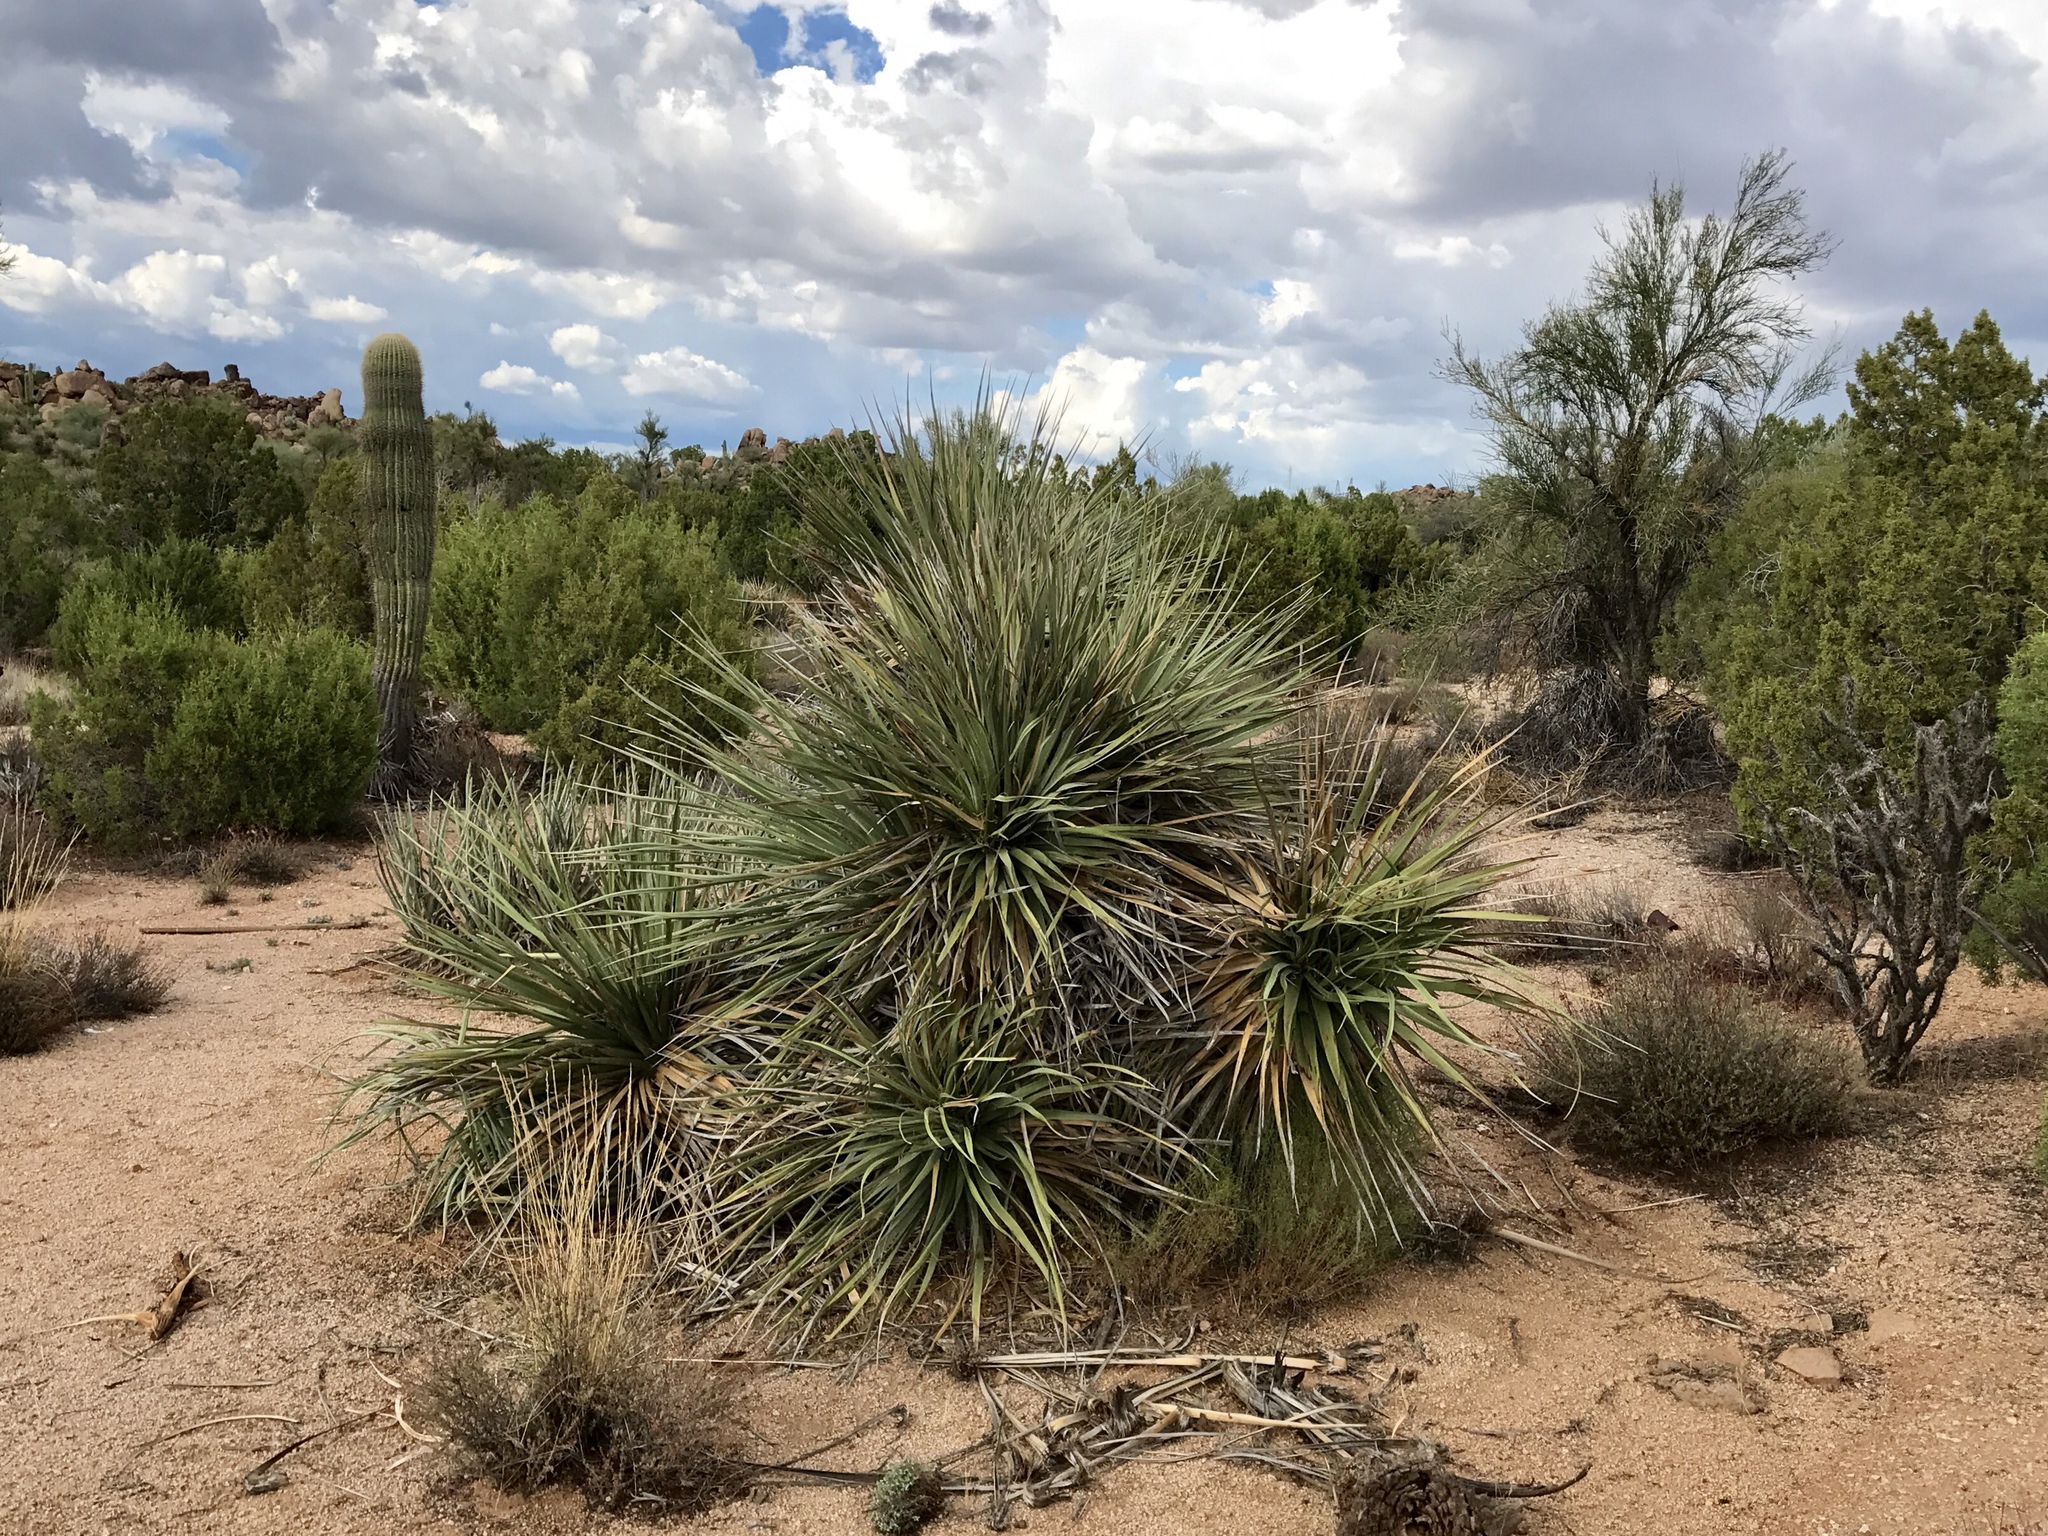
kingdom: Plantae
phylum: Tracheophyta
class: Liliopsida
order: Asparagales
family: Asparagaceae
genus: Nolina
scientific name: Nolina bigelovii
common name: Bigelow bear-grass
